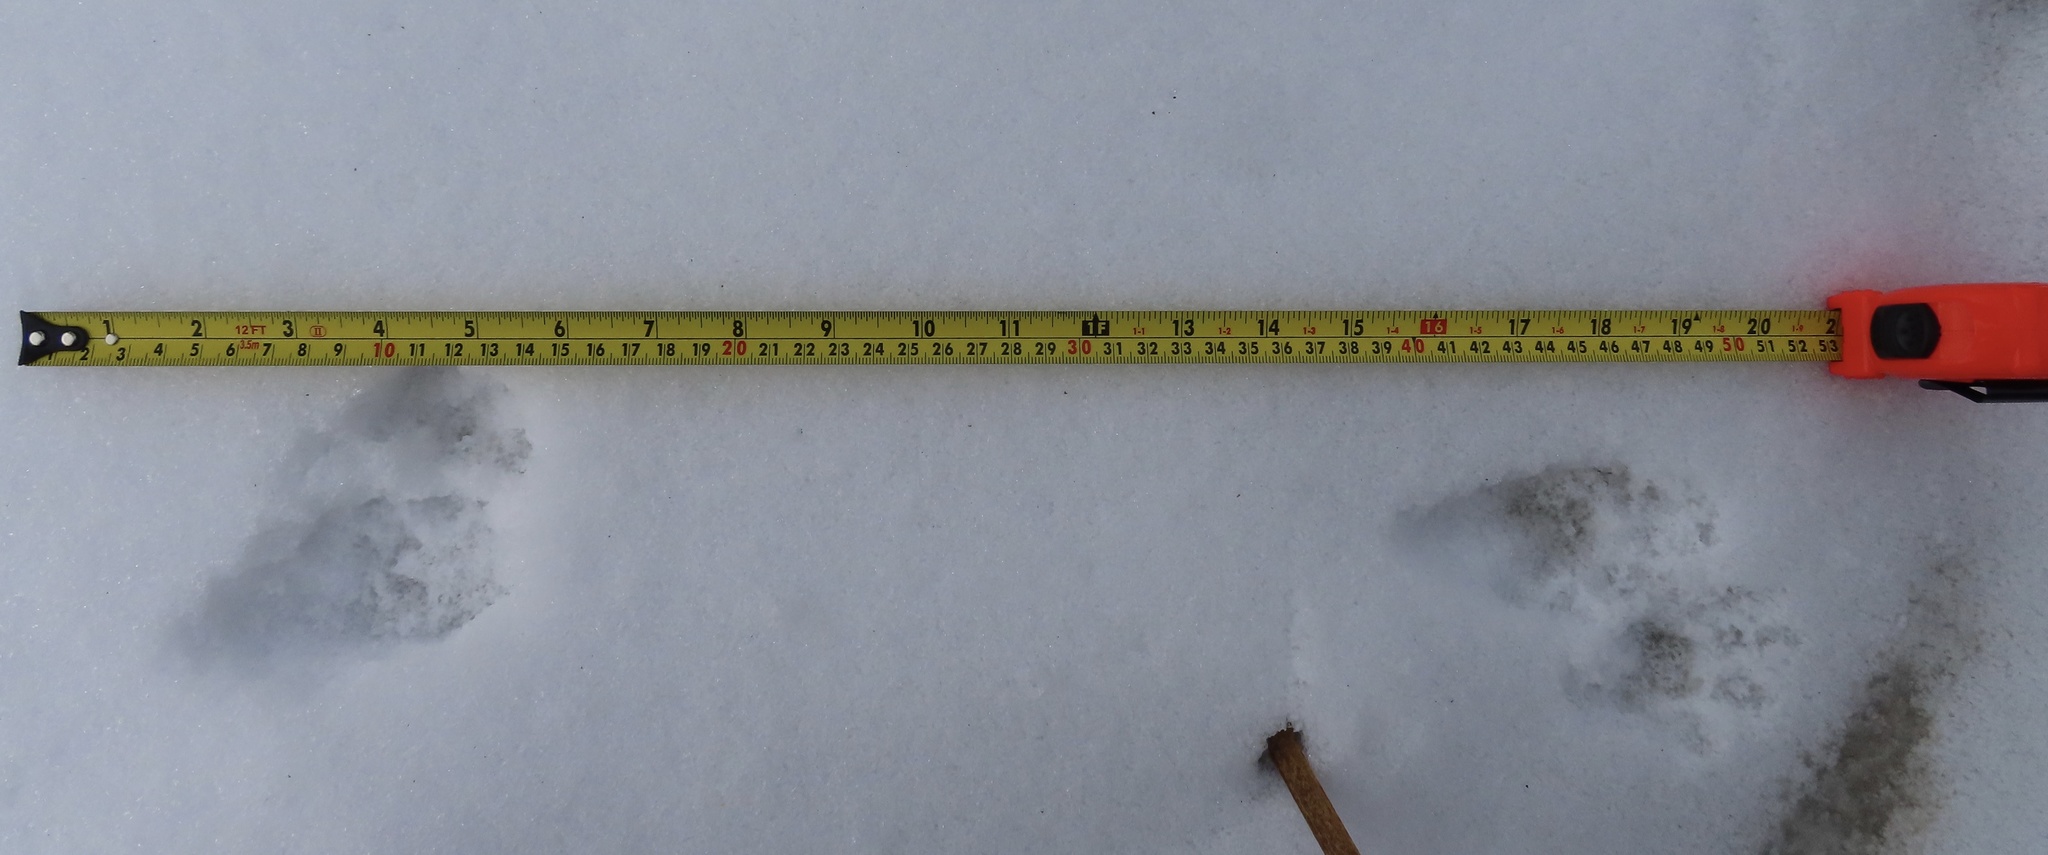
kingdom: Animalia
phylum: Chordata
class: Mammalia
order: Carnivora
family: Procyonidae
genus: Procyon
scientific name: Procyon lotor
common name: Raccoon
